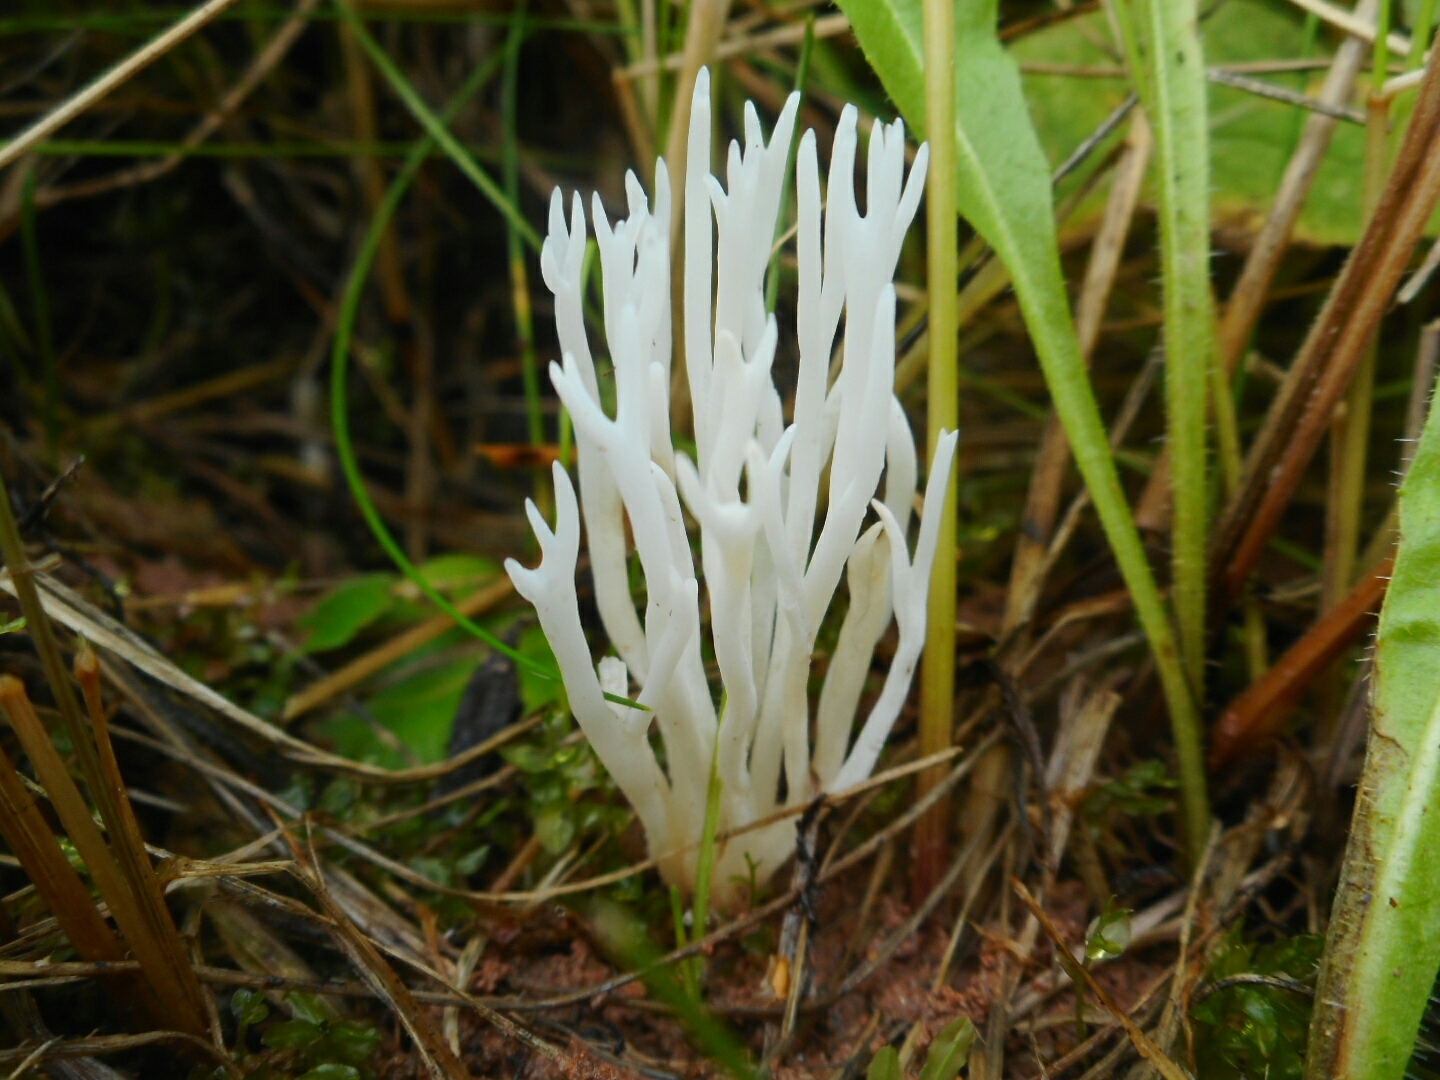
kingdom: Fungi
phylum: Basidiomycota
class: Agaricomycetes
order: Agaricales
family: Clavariaceae
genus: Ramariopsis
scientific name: Ramariopsis kunzei
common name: Ivory coral
